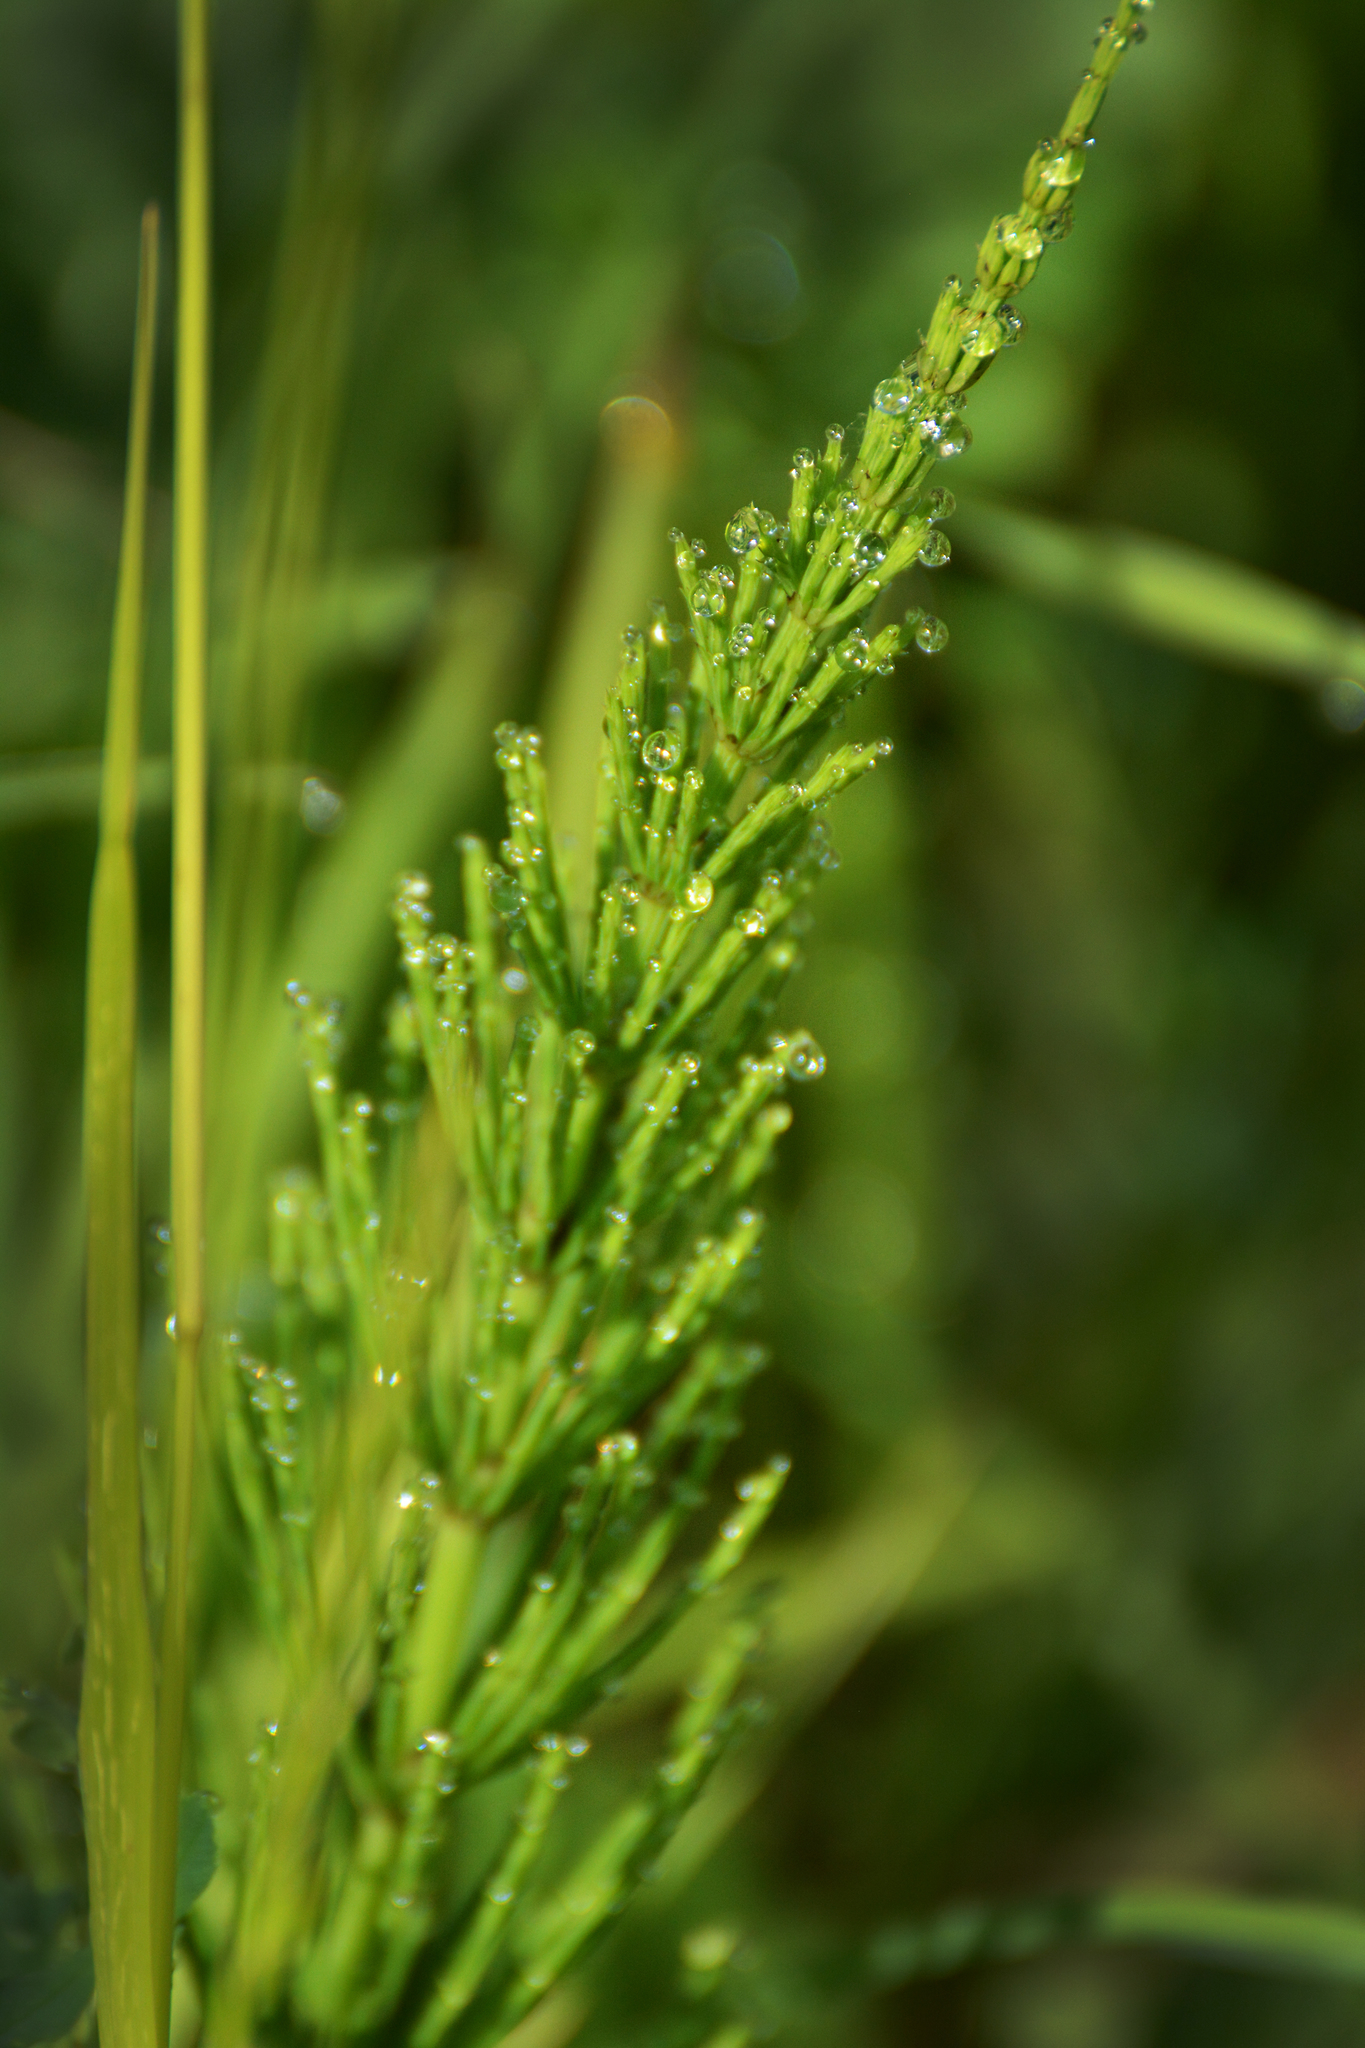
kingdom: Plantae
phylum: Tracheophyta
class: Polypodiopsida
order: Equisetales
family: Equisetaceae
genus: Equisetum
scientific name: Equisetum arvense
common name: Field horsetail
